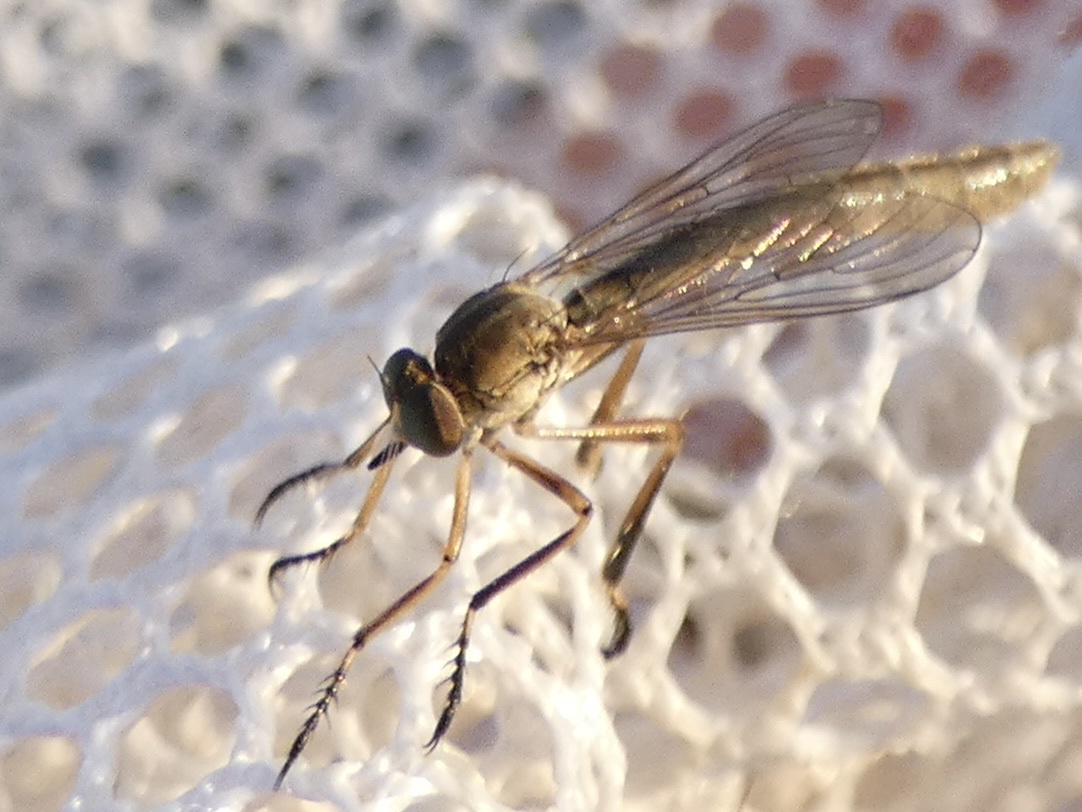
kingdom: Animalia
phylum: Arthropoda
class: Insecta
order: Diptera
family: Asilidae
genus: Leptogaster
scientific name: Leptogaster cylindrica
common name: Striped slender robberfly
